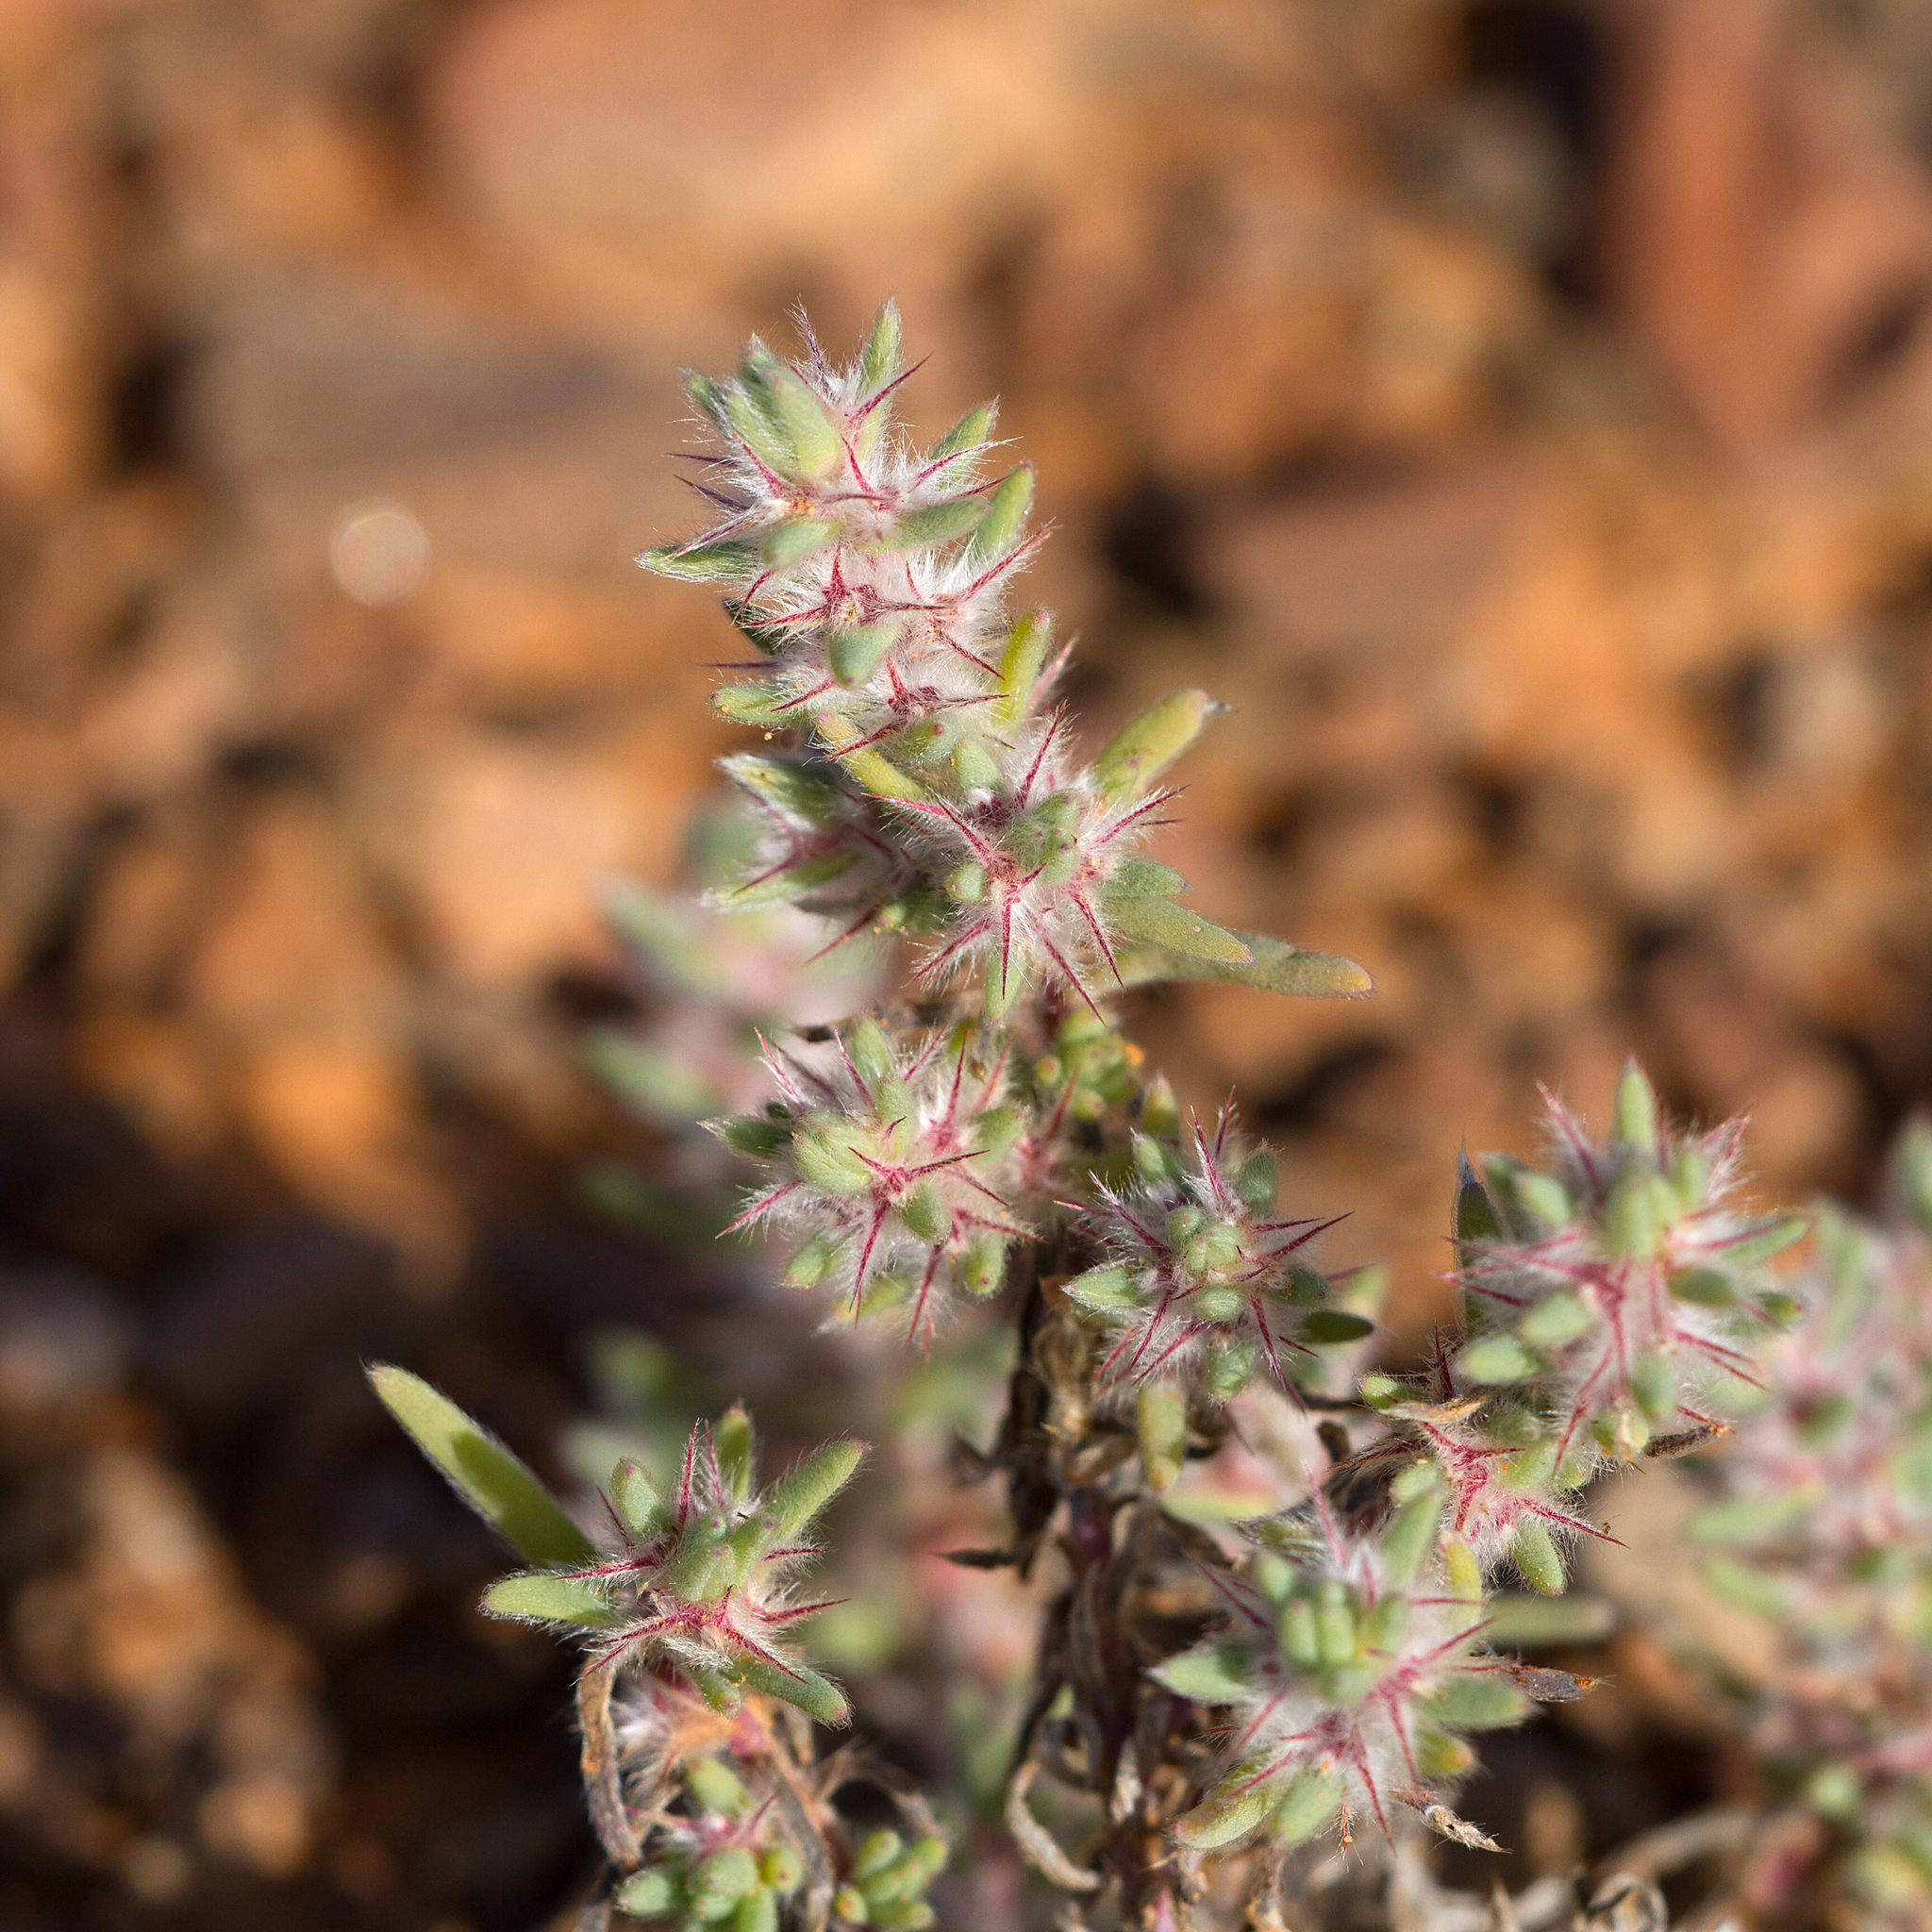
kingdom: Plantae
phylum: Tracheophyta
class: Magnoliopsida
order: Caryophyllales
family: Amaranthaceae
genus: Sclerolaena
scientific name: Sclerolaena lanicuspis
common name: Copperbur
